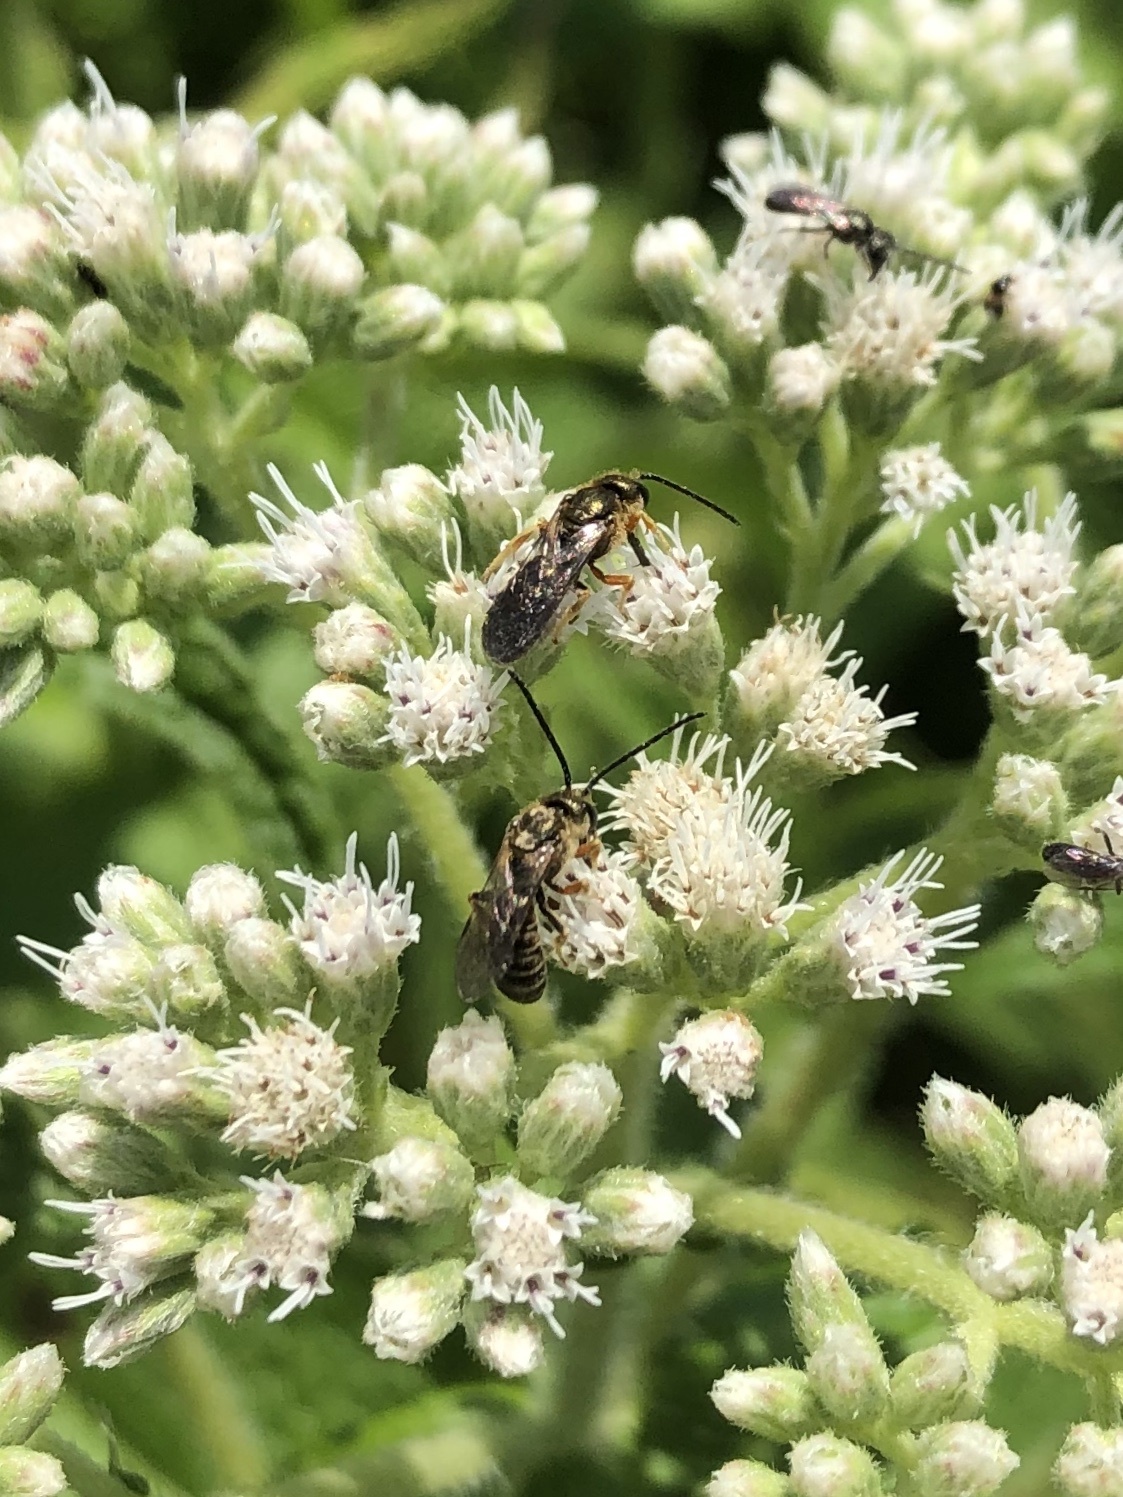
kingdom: Animalia
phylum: Arthropoda
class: Insecta
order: Hymenoptera
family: Halictidae
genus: Halictus
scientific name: Halictus confusus
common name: Southern bronze furrow bee
